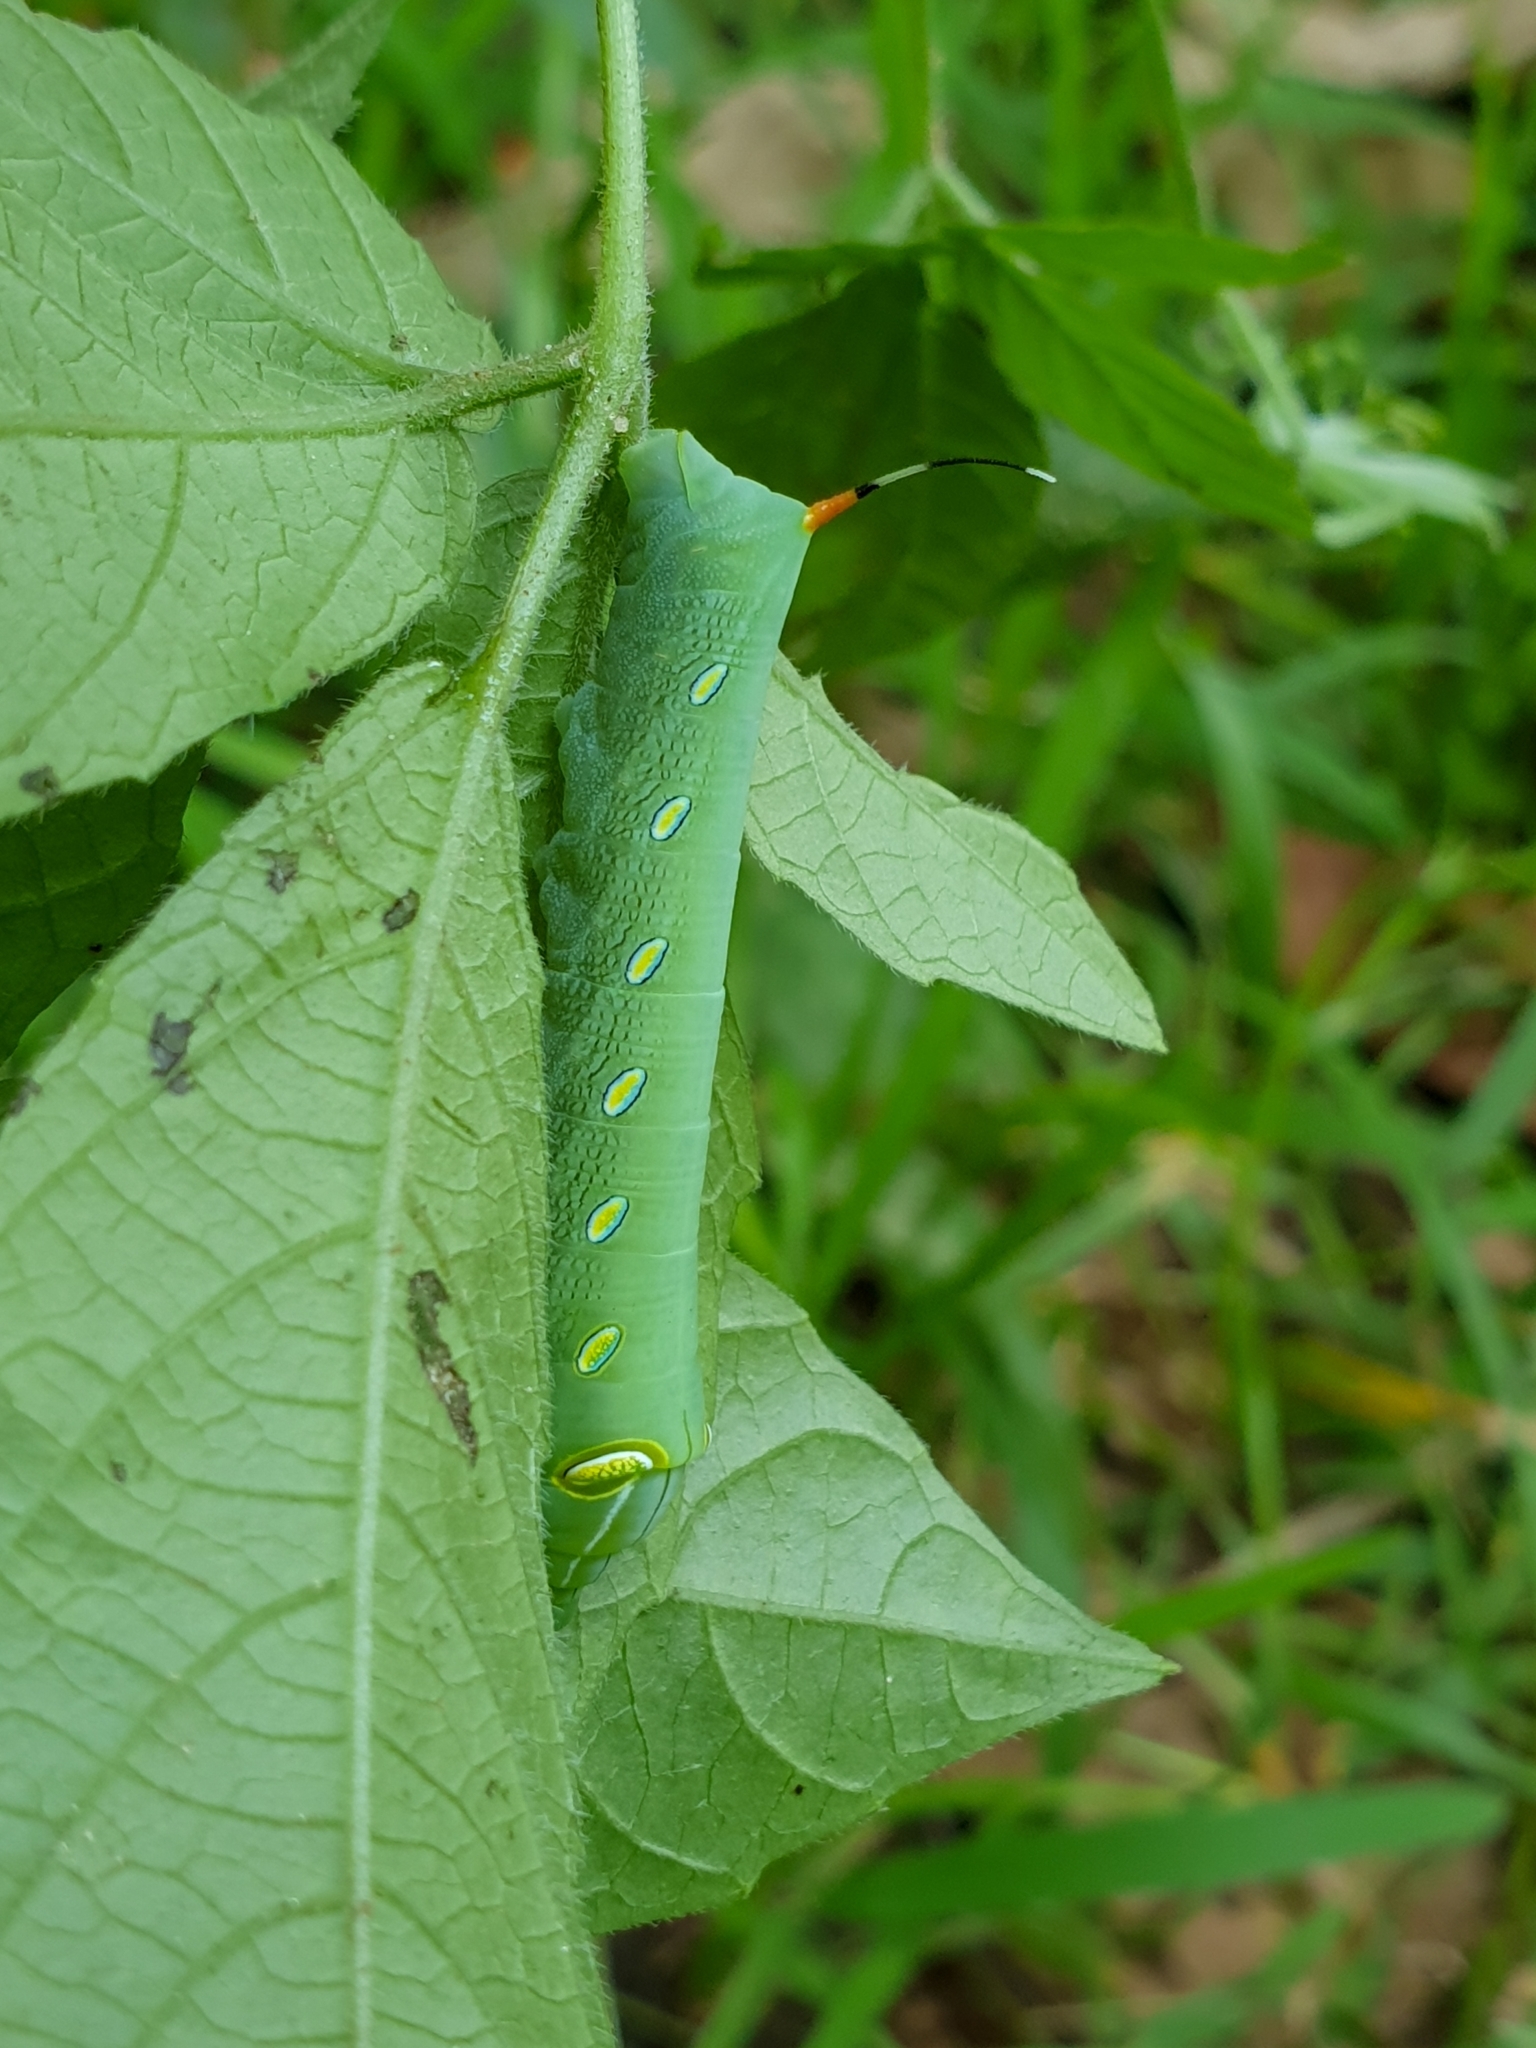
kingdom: Animalia
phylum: Arthropoda
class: Insecta
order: Lepidoptera
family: Sphingidae
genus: Pergesa
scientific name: Pergesa acteus
